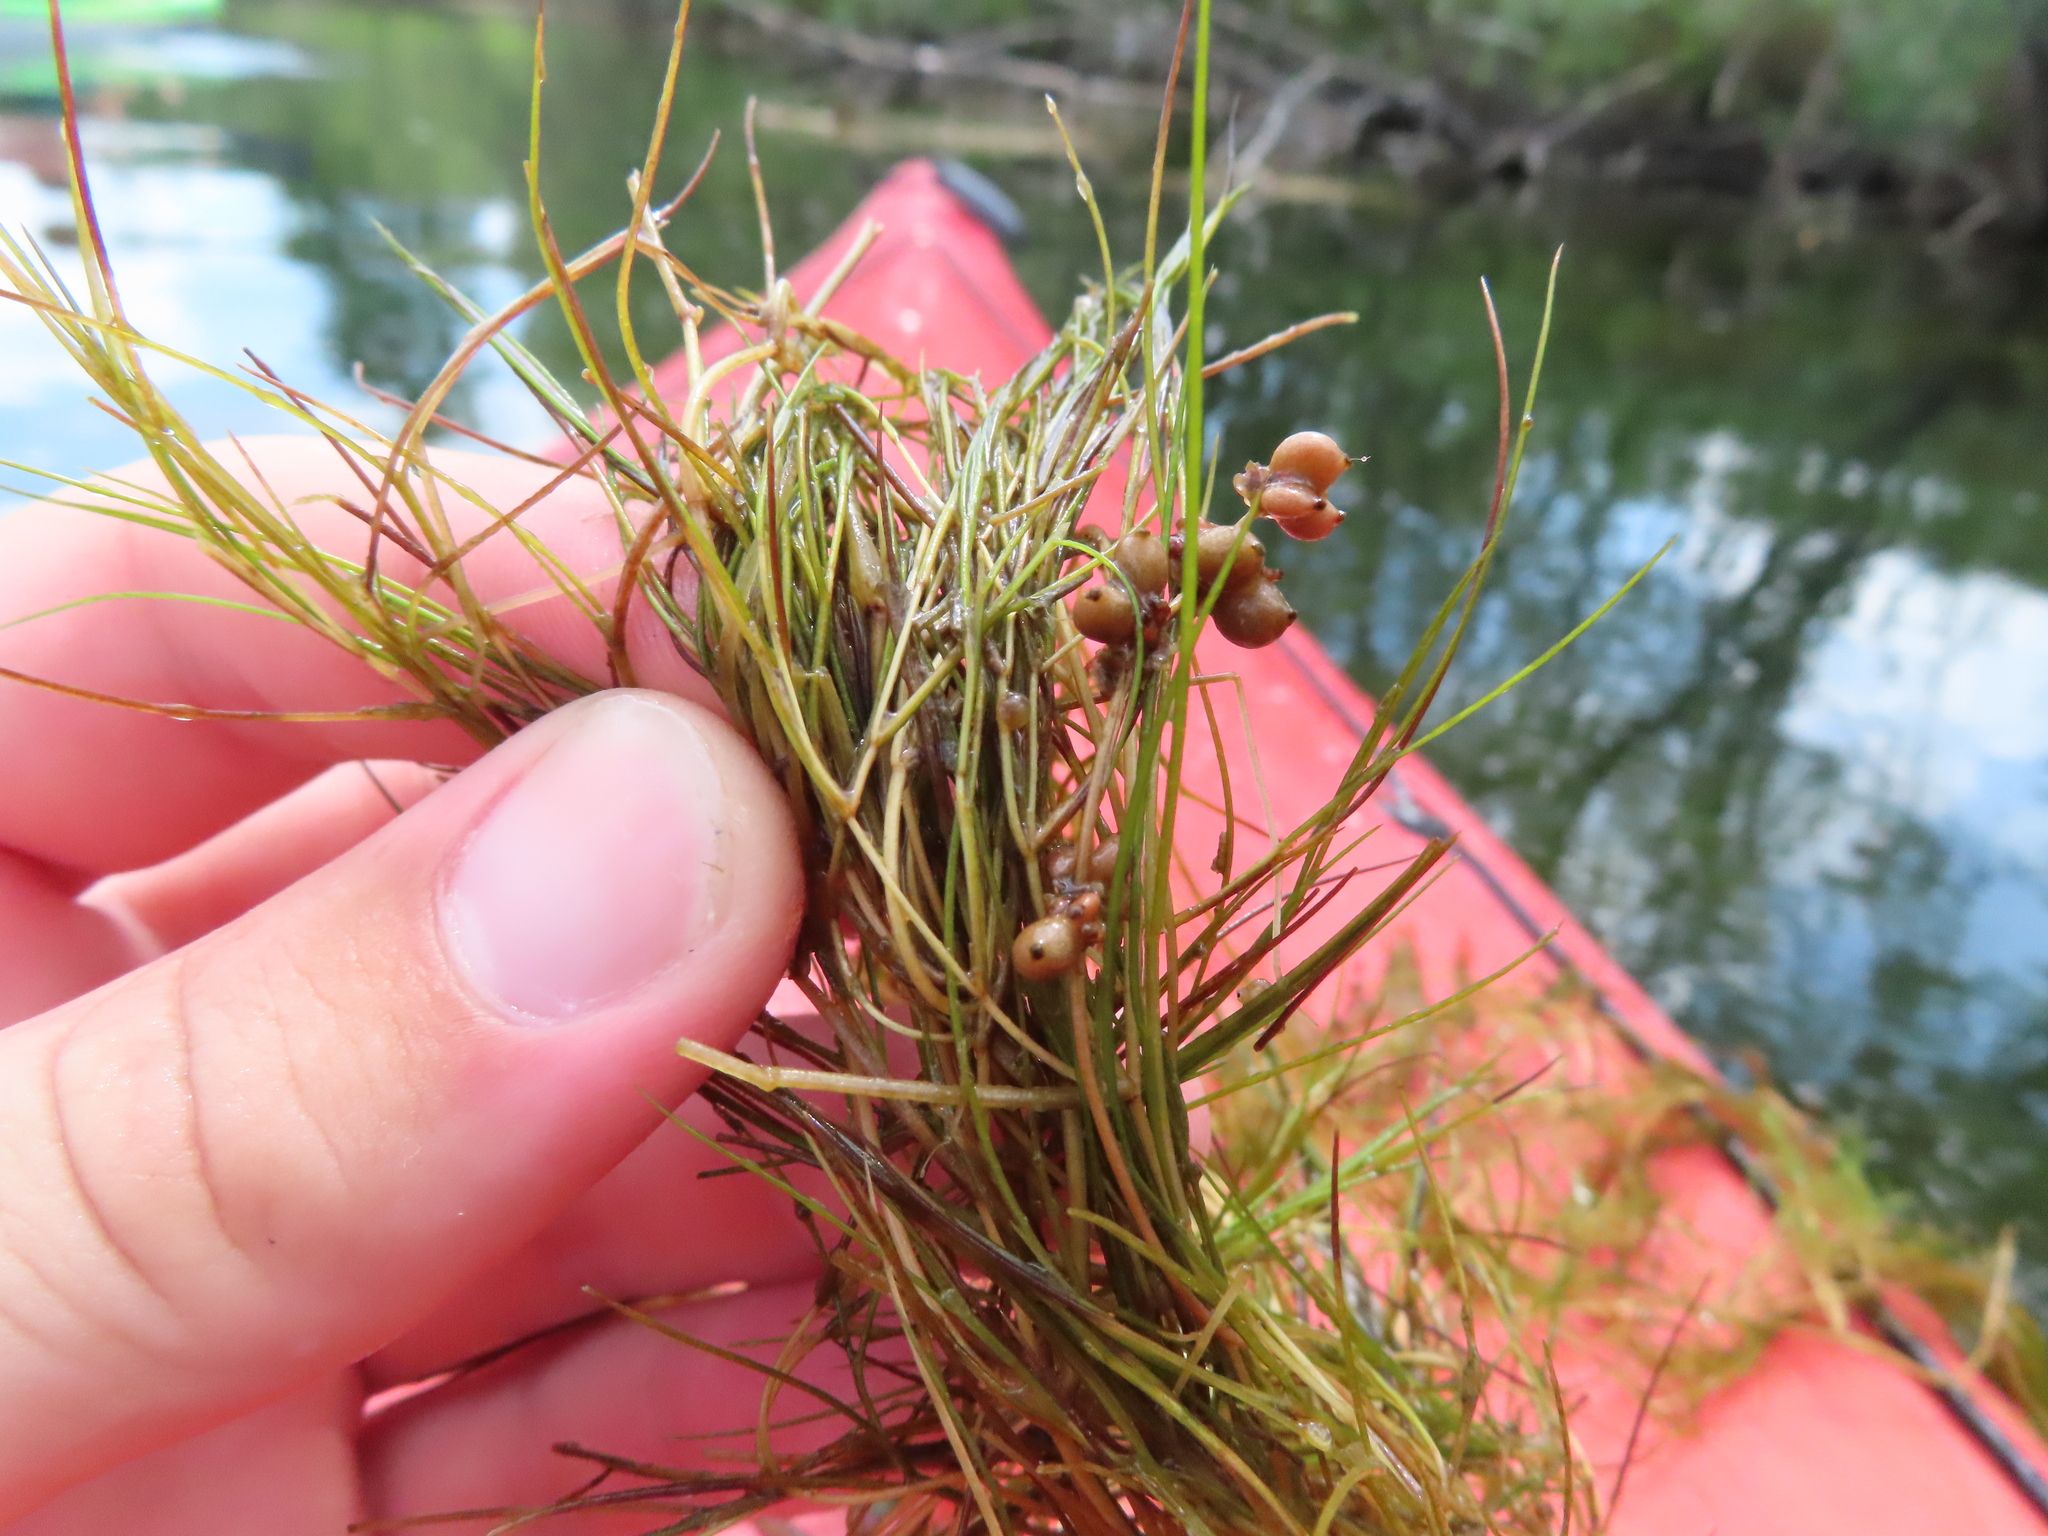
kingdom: Plantae
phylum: Tracheophyta
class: Liliopsida
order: Alismatales
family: Potamogetonaceae
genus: Stuckenia
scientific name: Stuckenia pectinata
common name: Sago pondweed
